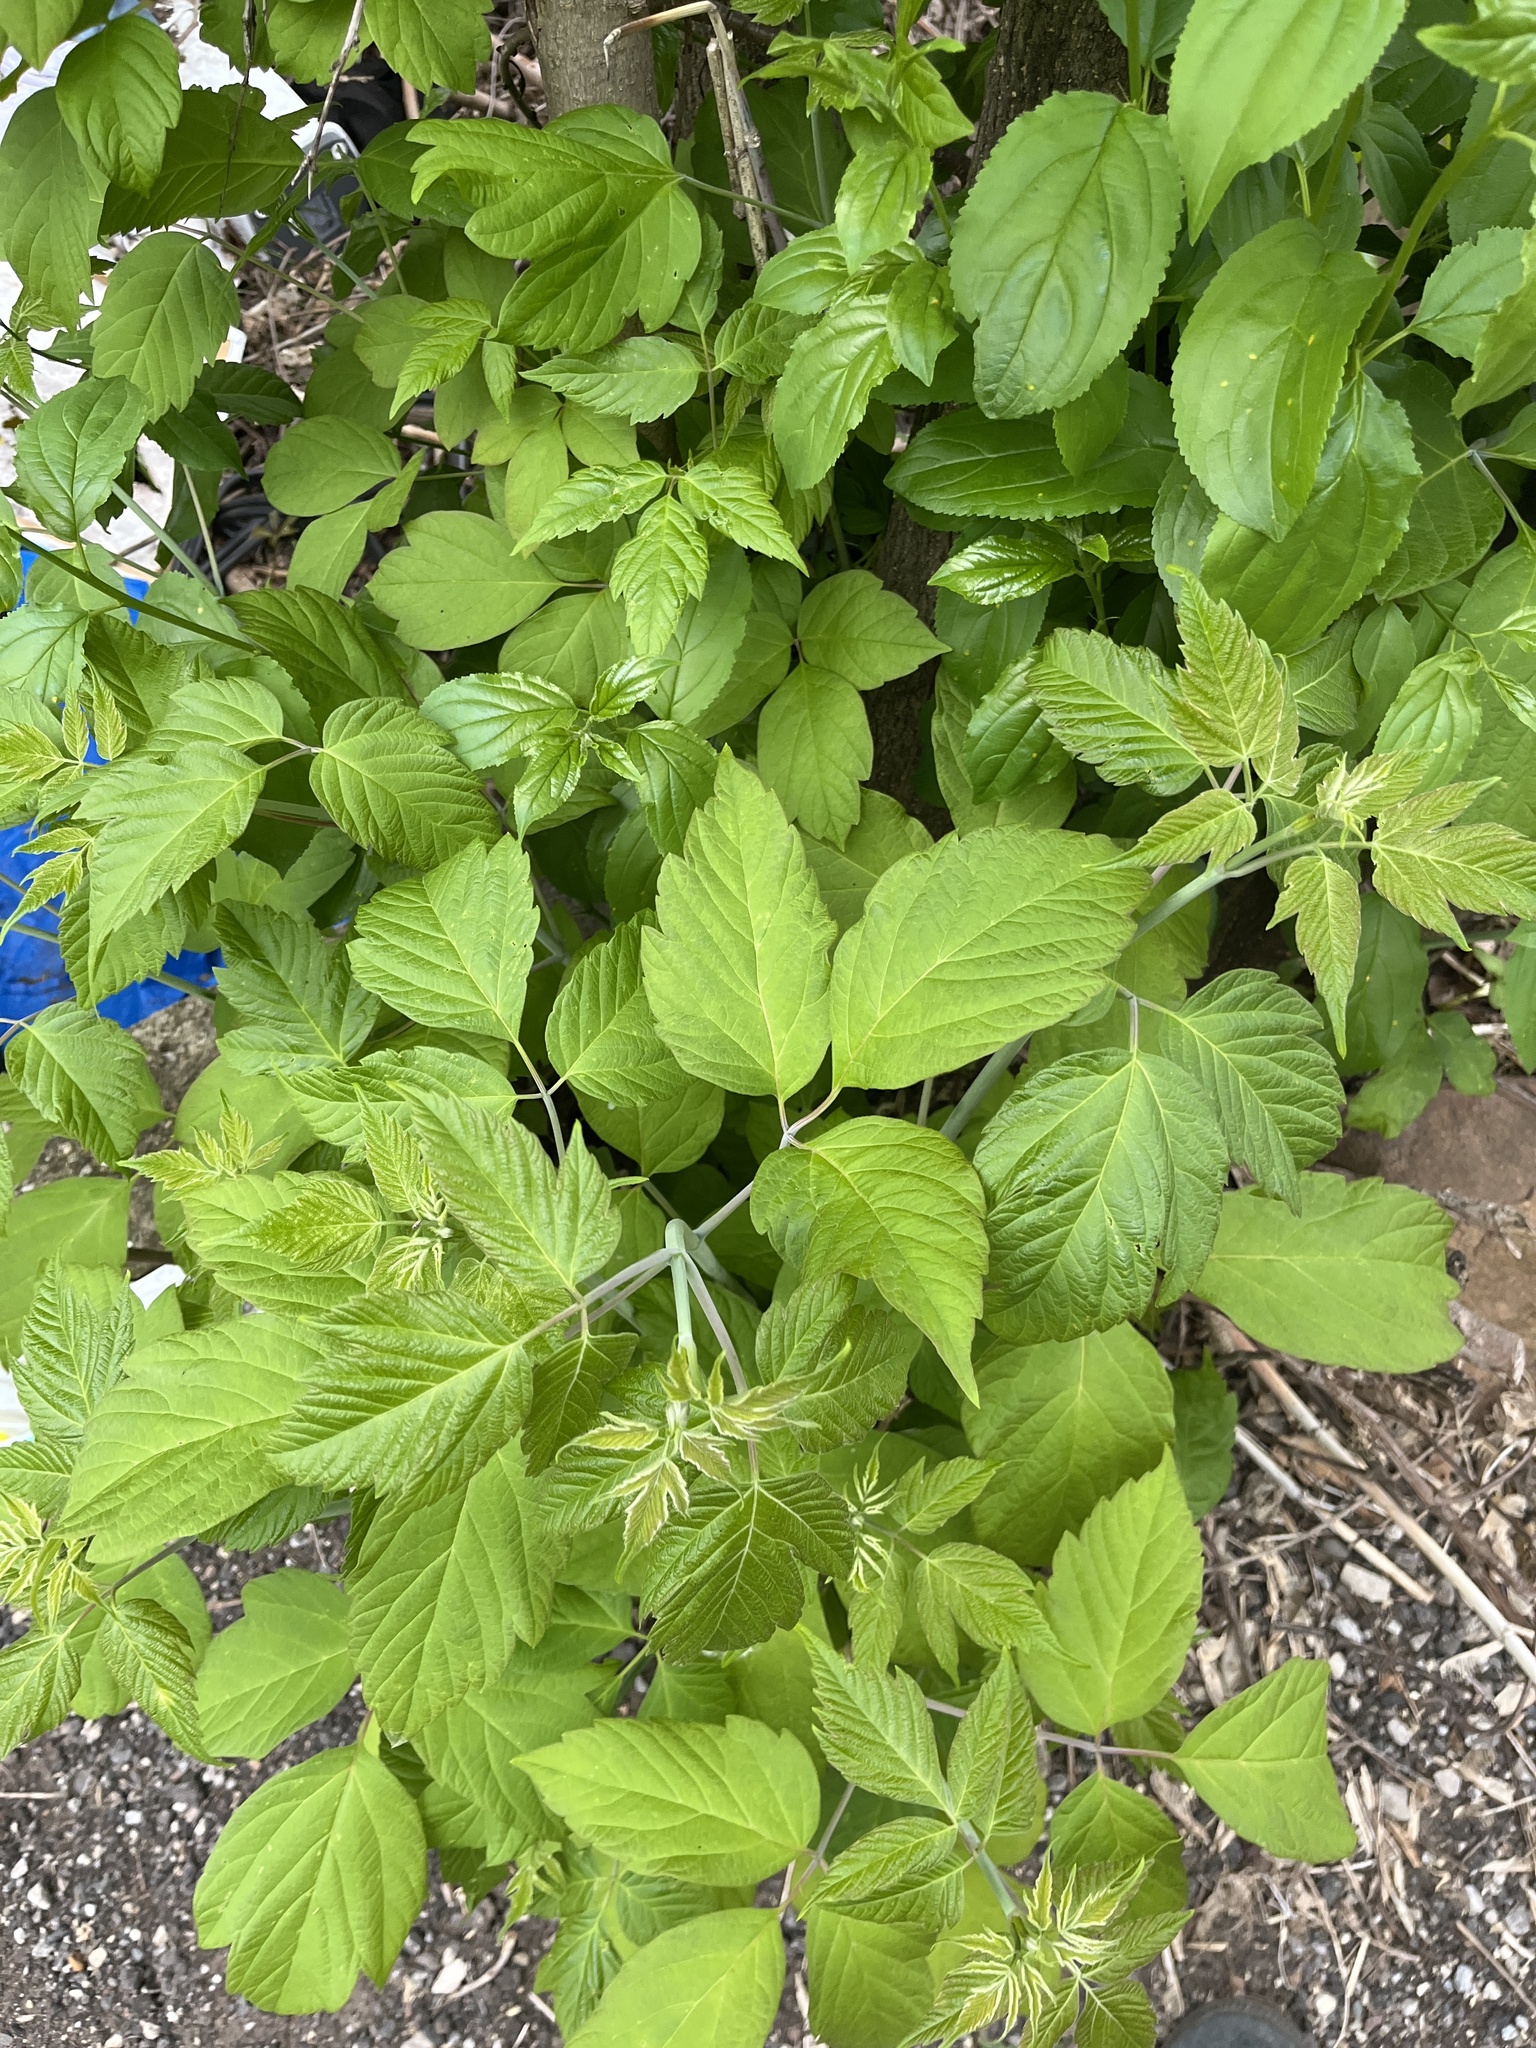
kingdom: Plantae
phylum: Tracheophyta
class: Magnoliopsida
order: Sapindales
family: Sapindaceae
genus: Acer
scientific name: Acer negundo
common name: Ashleaf maple
